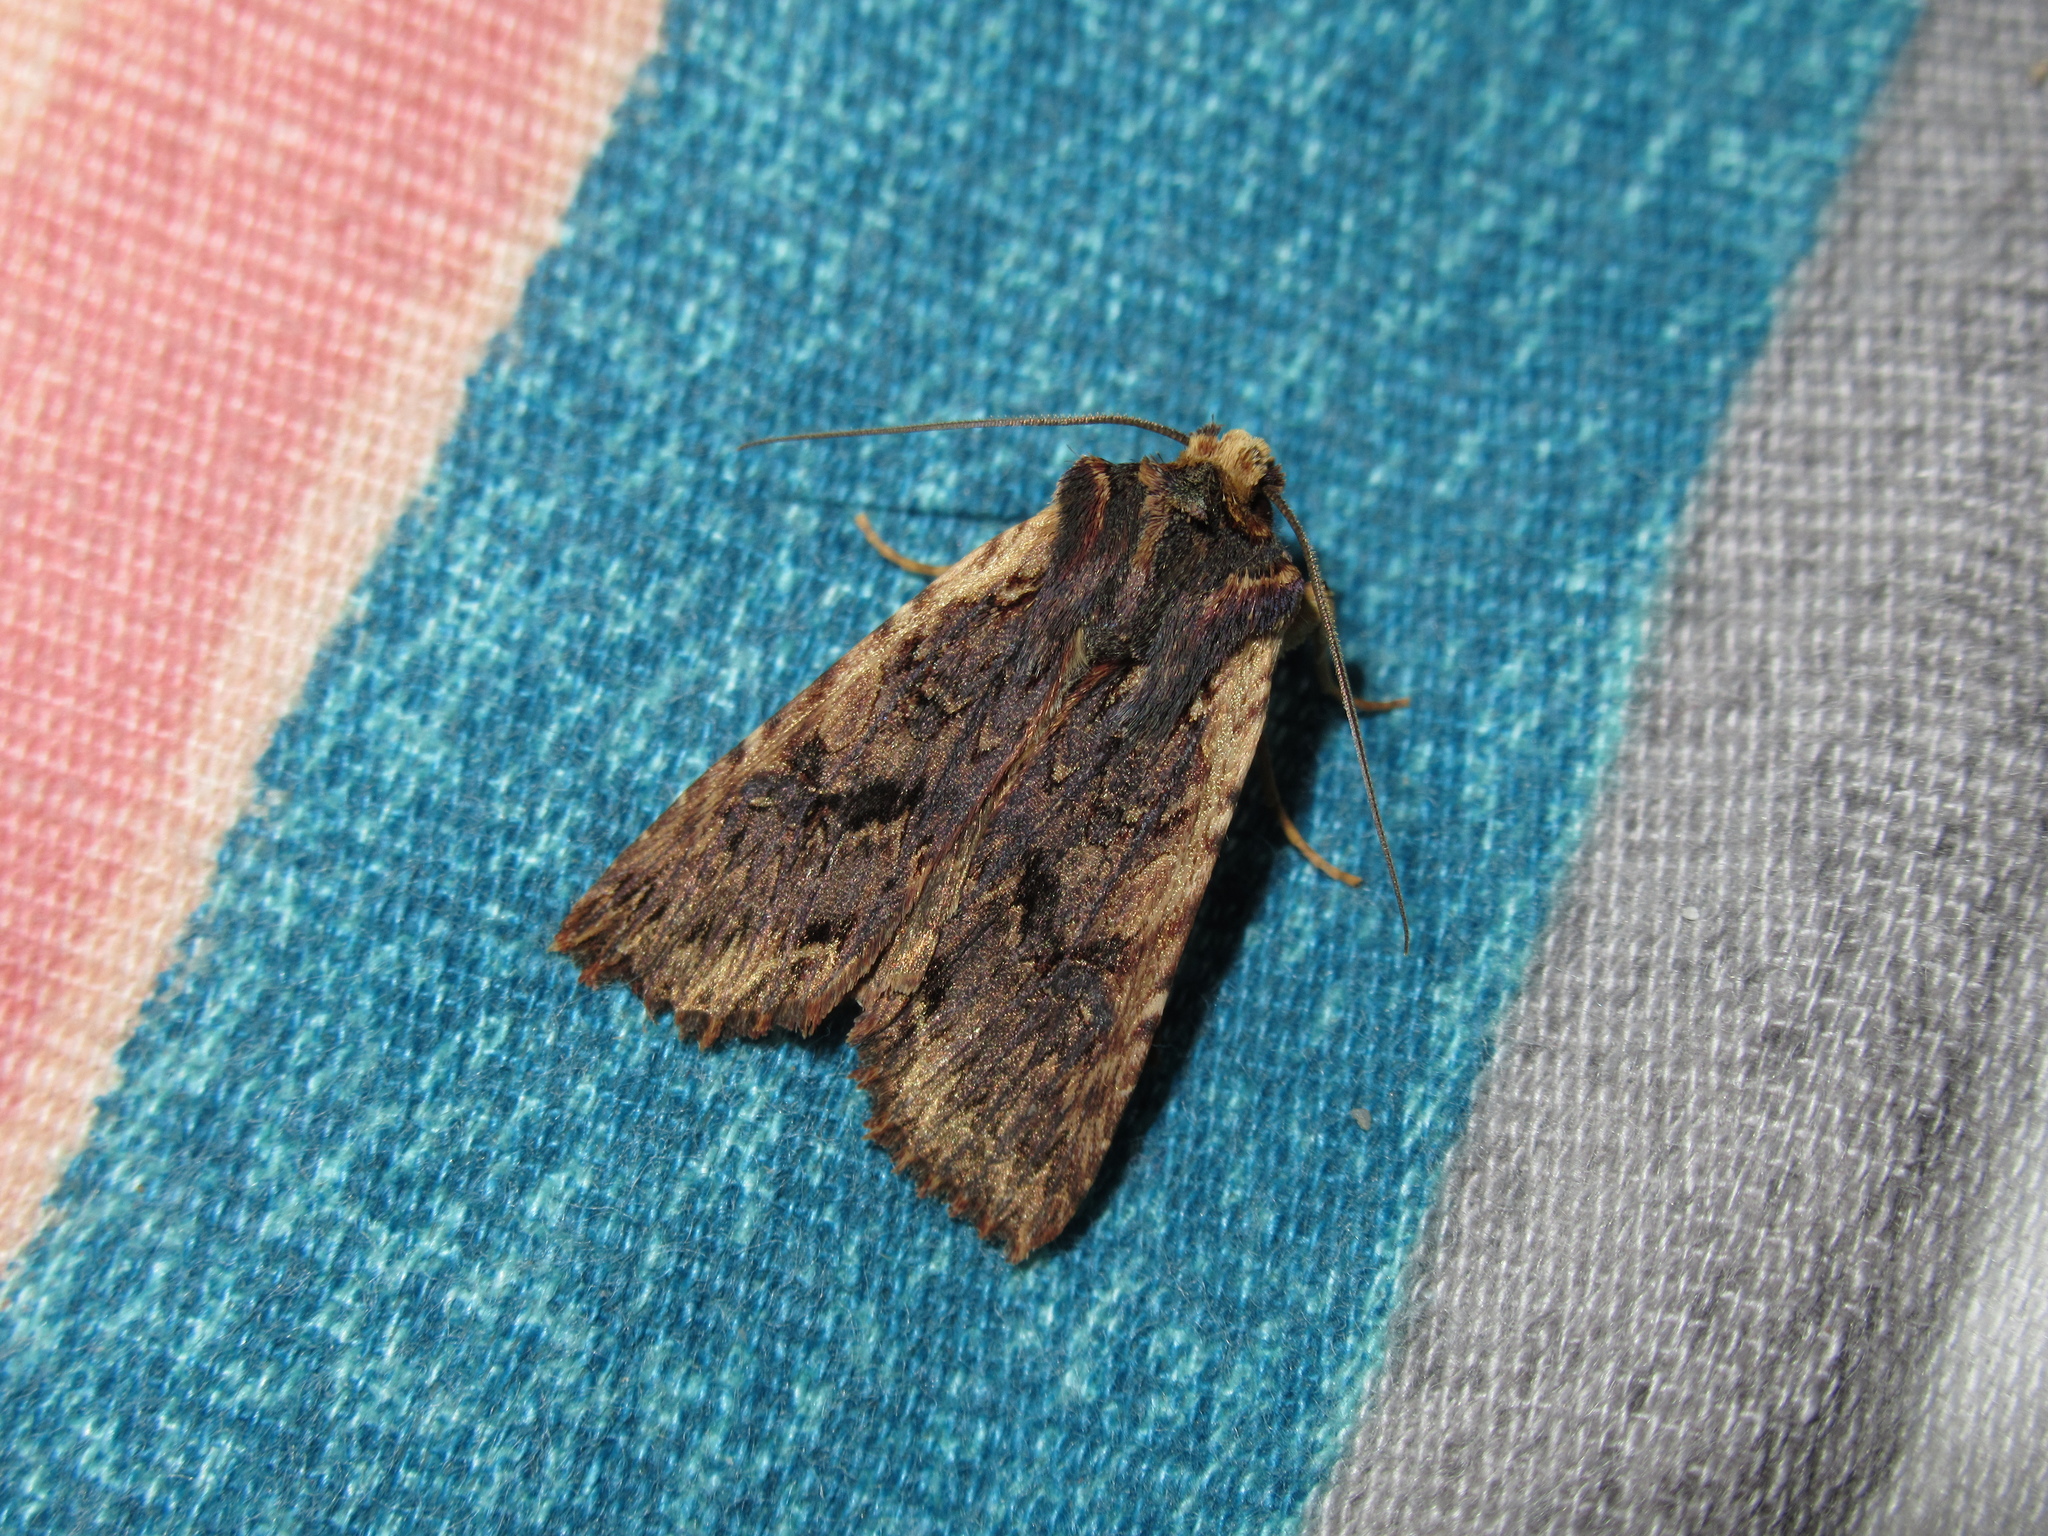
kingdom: Animalia
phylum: Arthropoda
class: Insecta
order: Lepidoptera
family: Noctuidae
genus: Meterana
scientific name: Meterana alcyone
